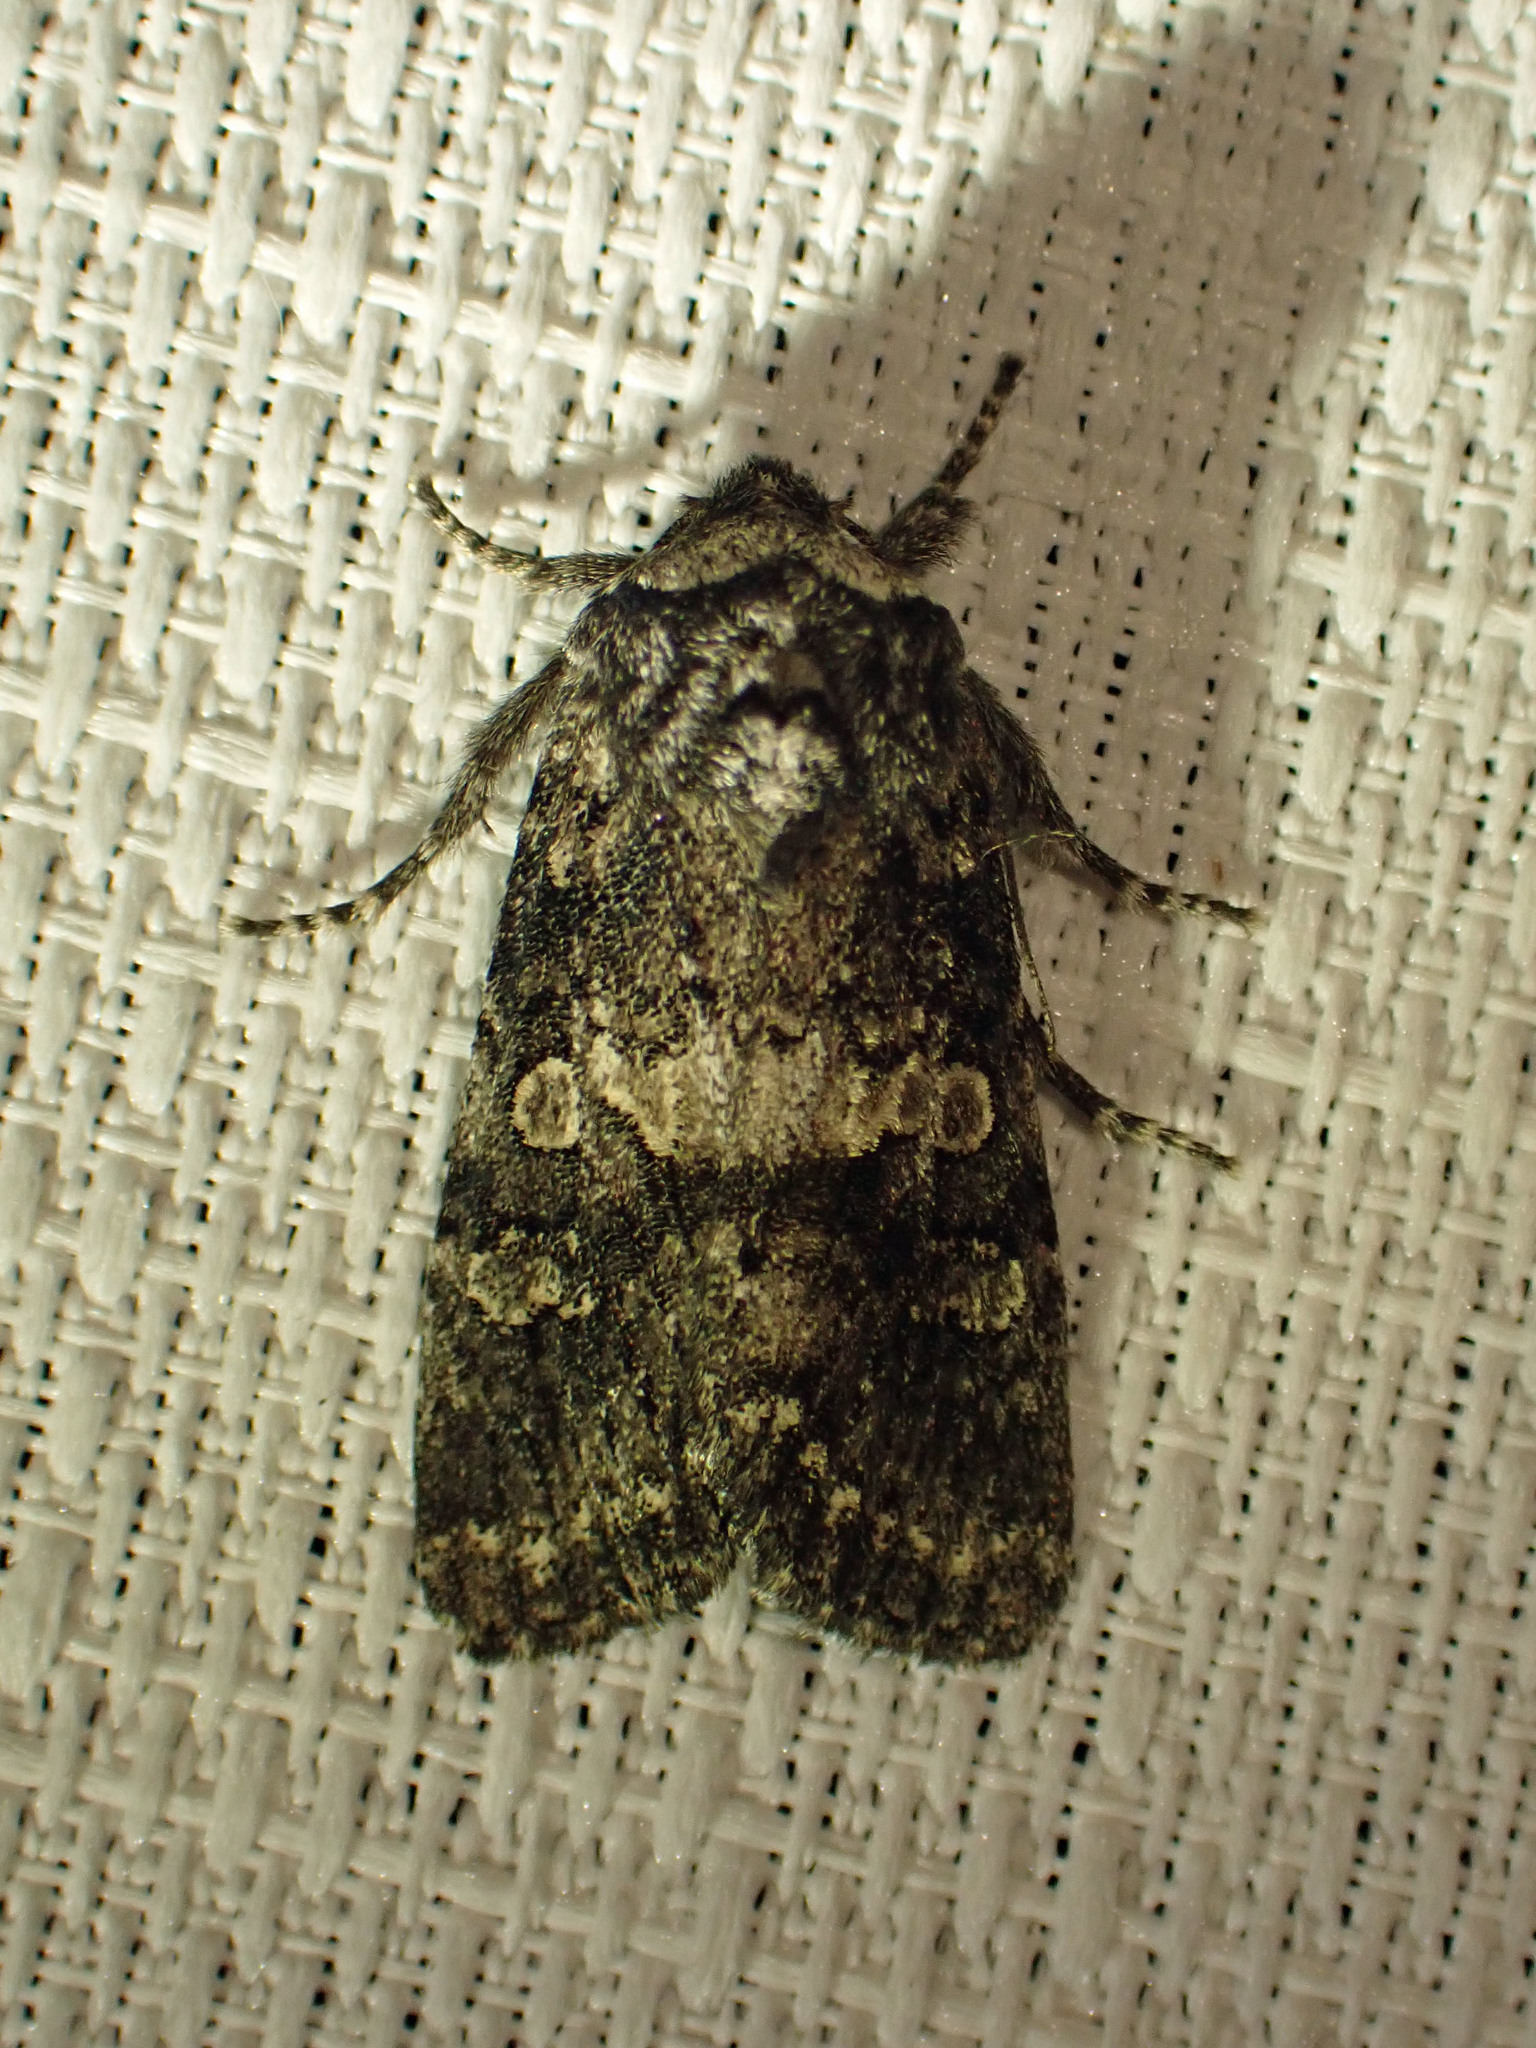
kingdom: Animalia
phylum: Arthropoda
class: Insecta
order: Lepidoptera
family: Noctuidae
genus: Egira
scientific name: Egira dolosa
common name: Lined black aspen cat.
